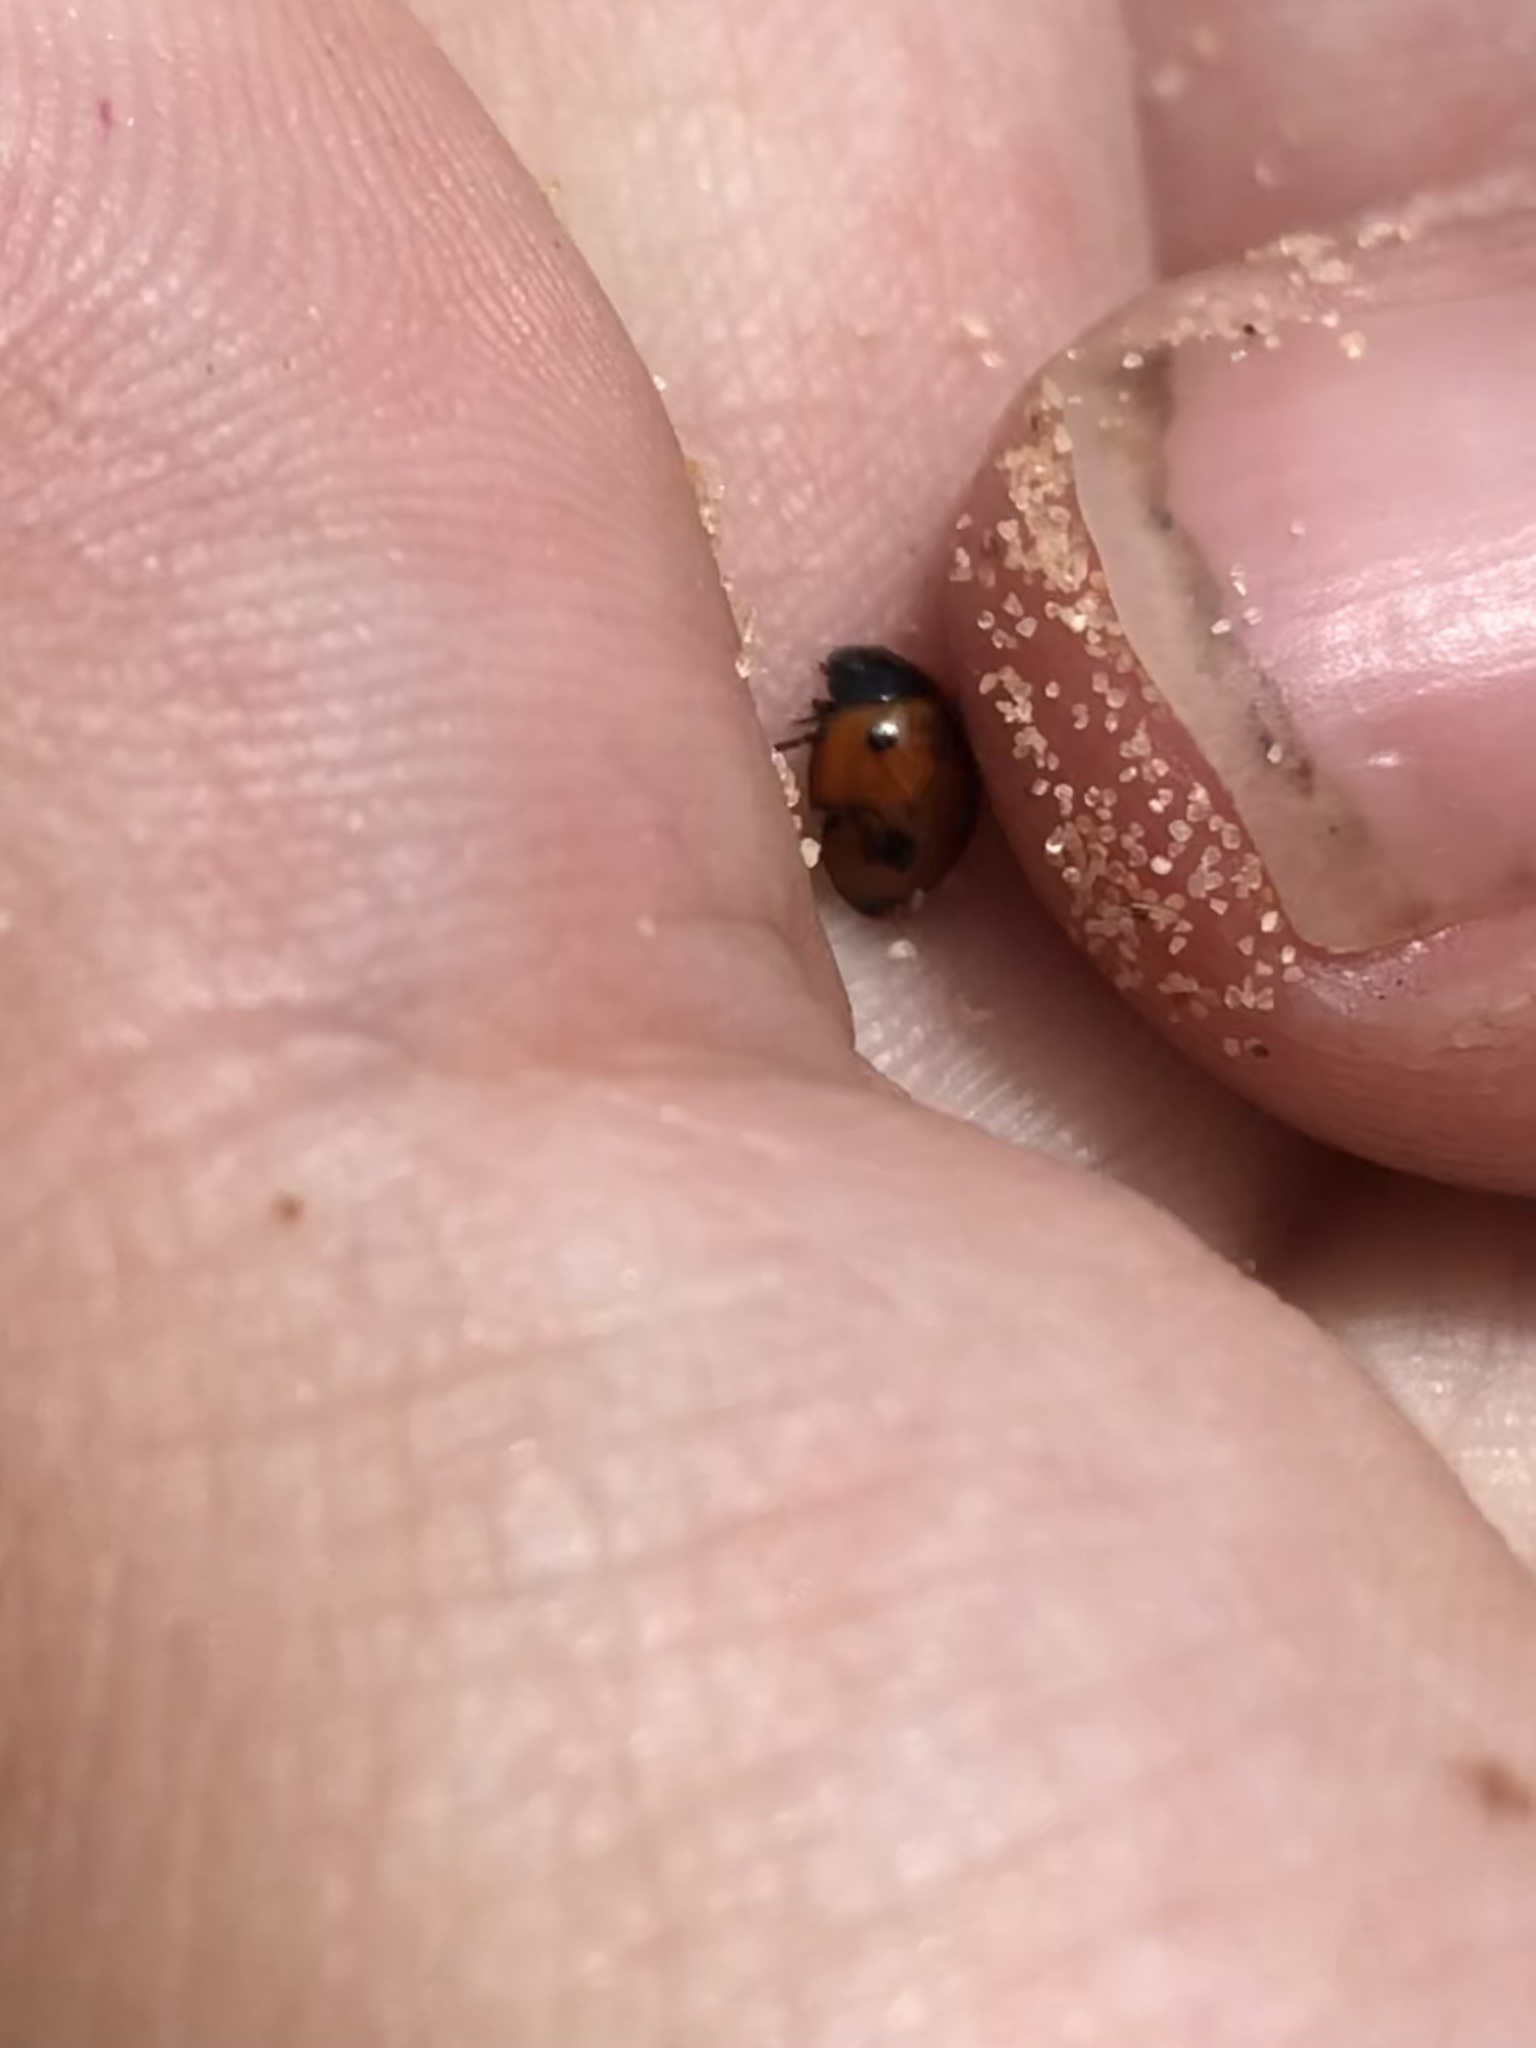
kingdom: Animalia
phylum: Arthropoda
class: Insecta
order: Coleoptera
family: Coccinellidae
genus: Brumoides
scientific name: Brumoides septentrionis
